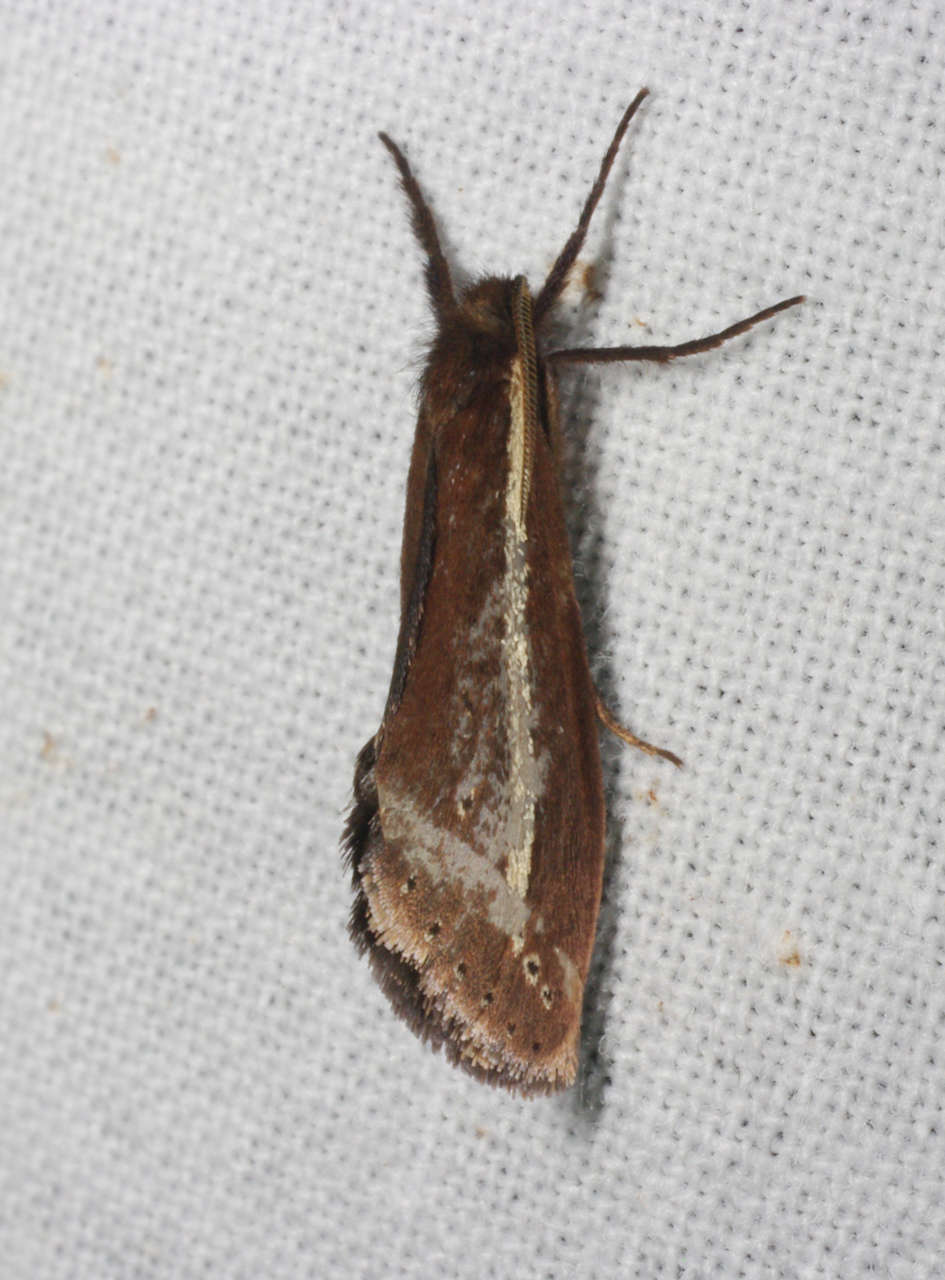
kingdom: Animalia
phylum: Arthropoda
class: Insecta
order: Lepidoptera
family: Hepialidae
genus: Fraus
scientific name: Fraus pteromela
